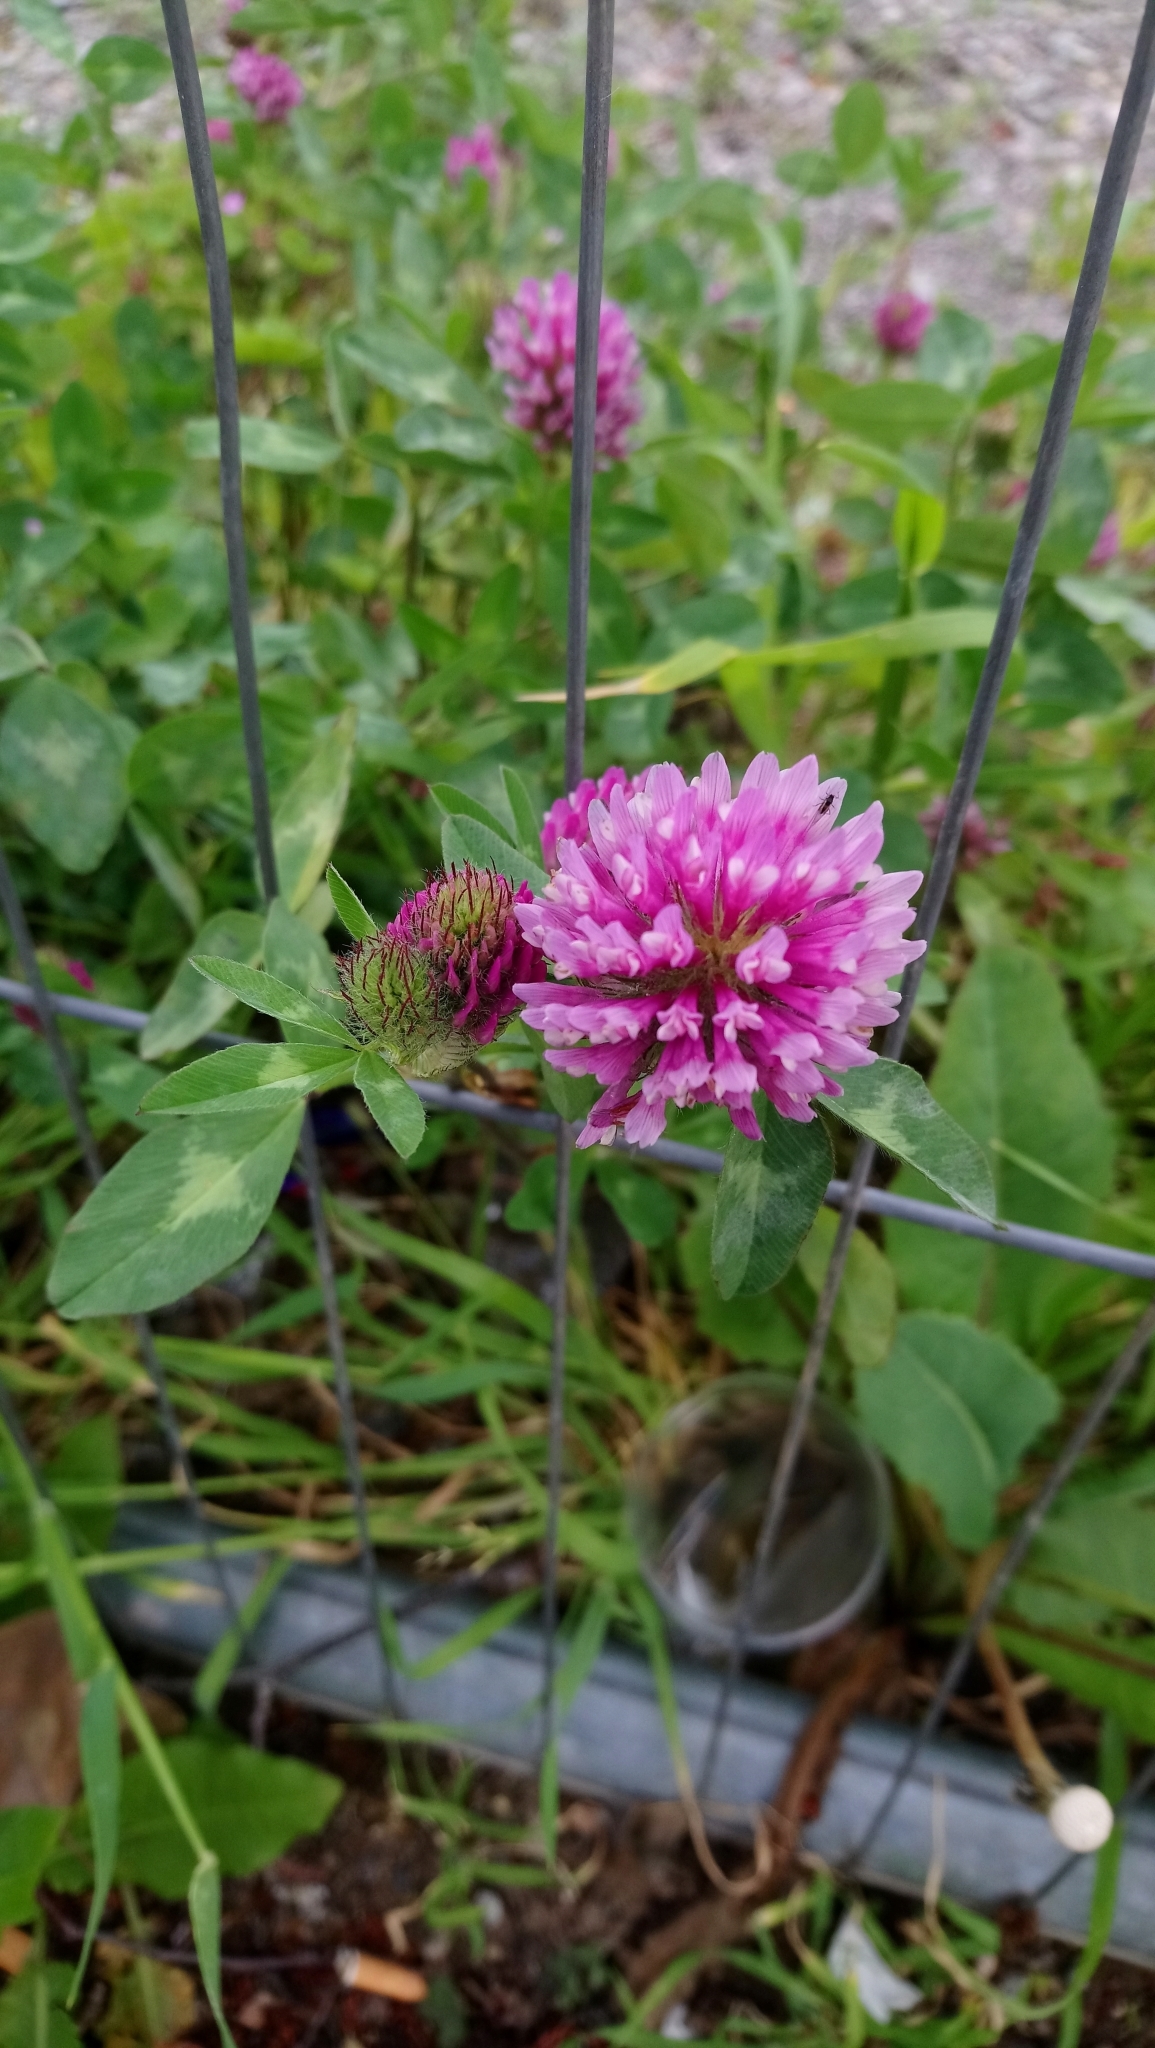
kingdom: Plantae
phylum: Tracheophyta
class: Magnoliopsida
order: Fabales
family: Fabaceae
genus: Trifolium
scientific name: Trifolium pratense
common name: Red clover
